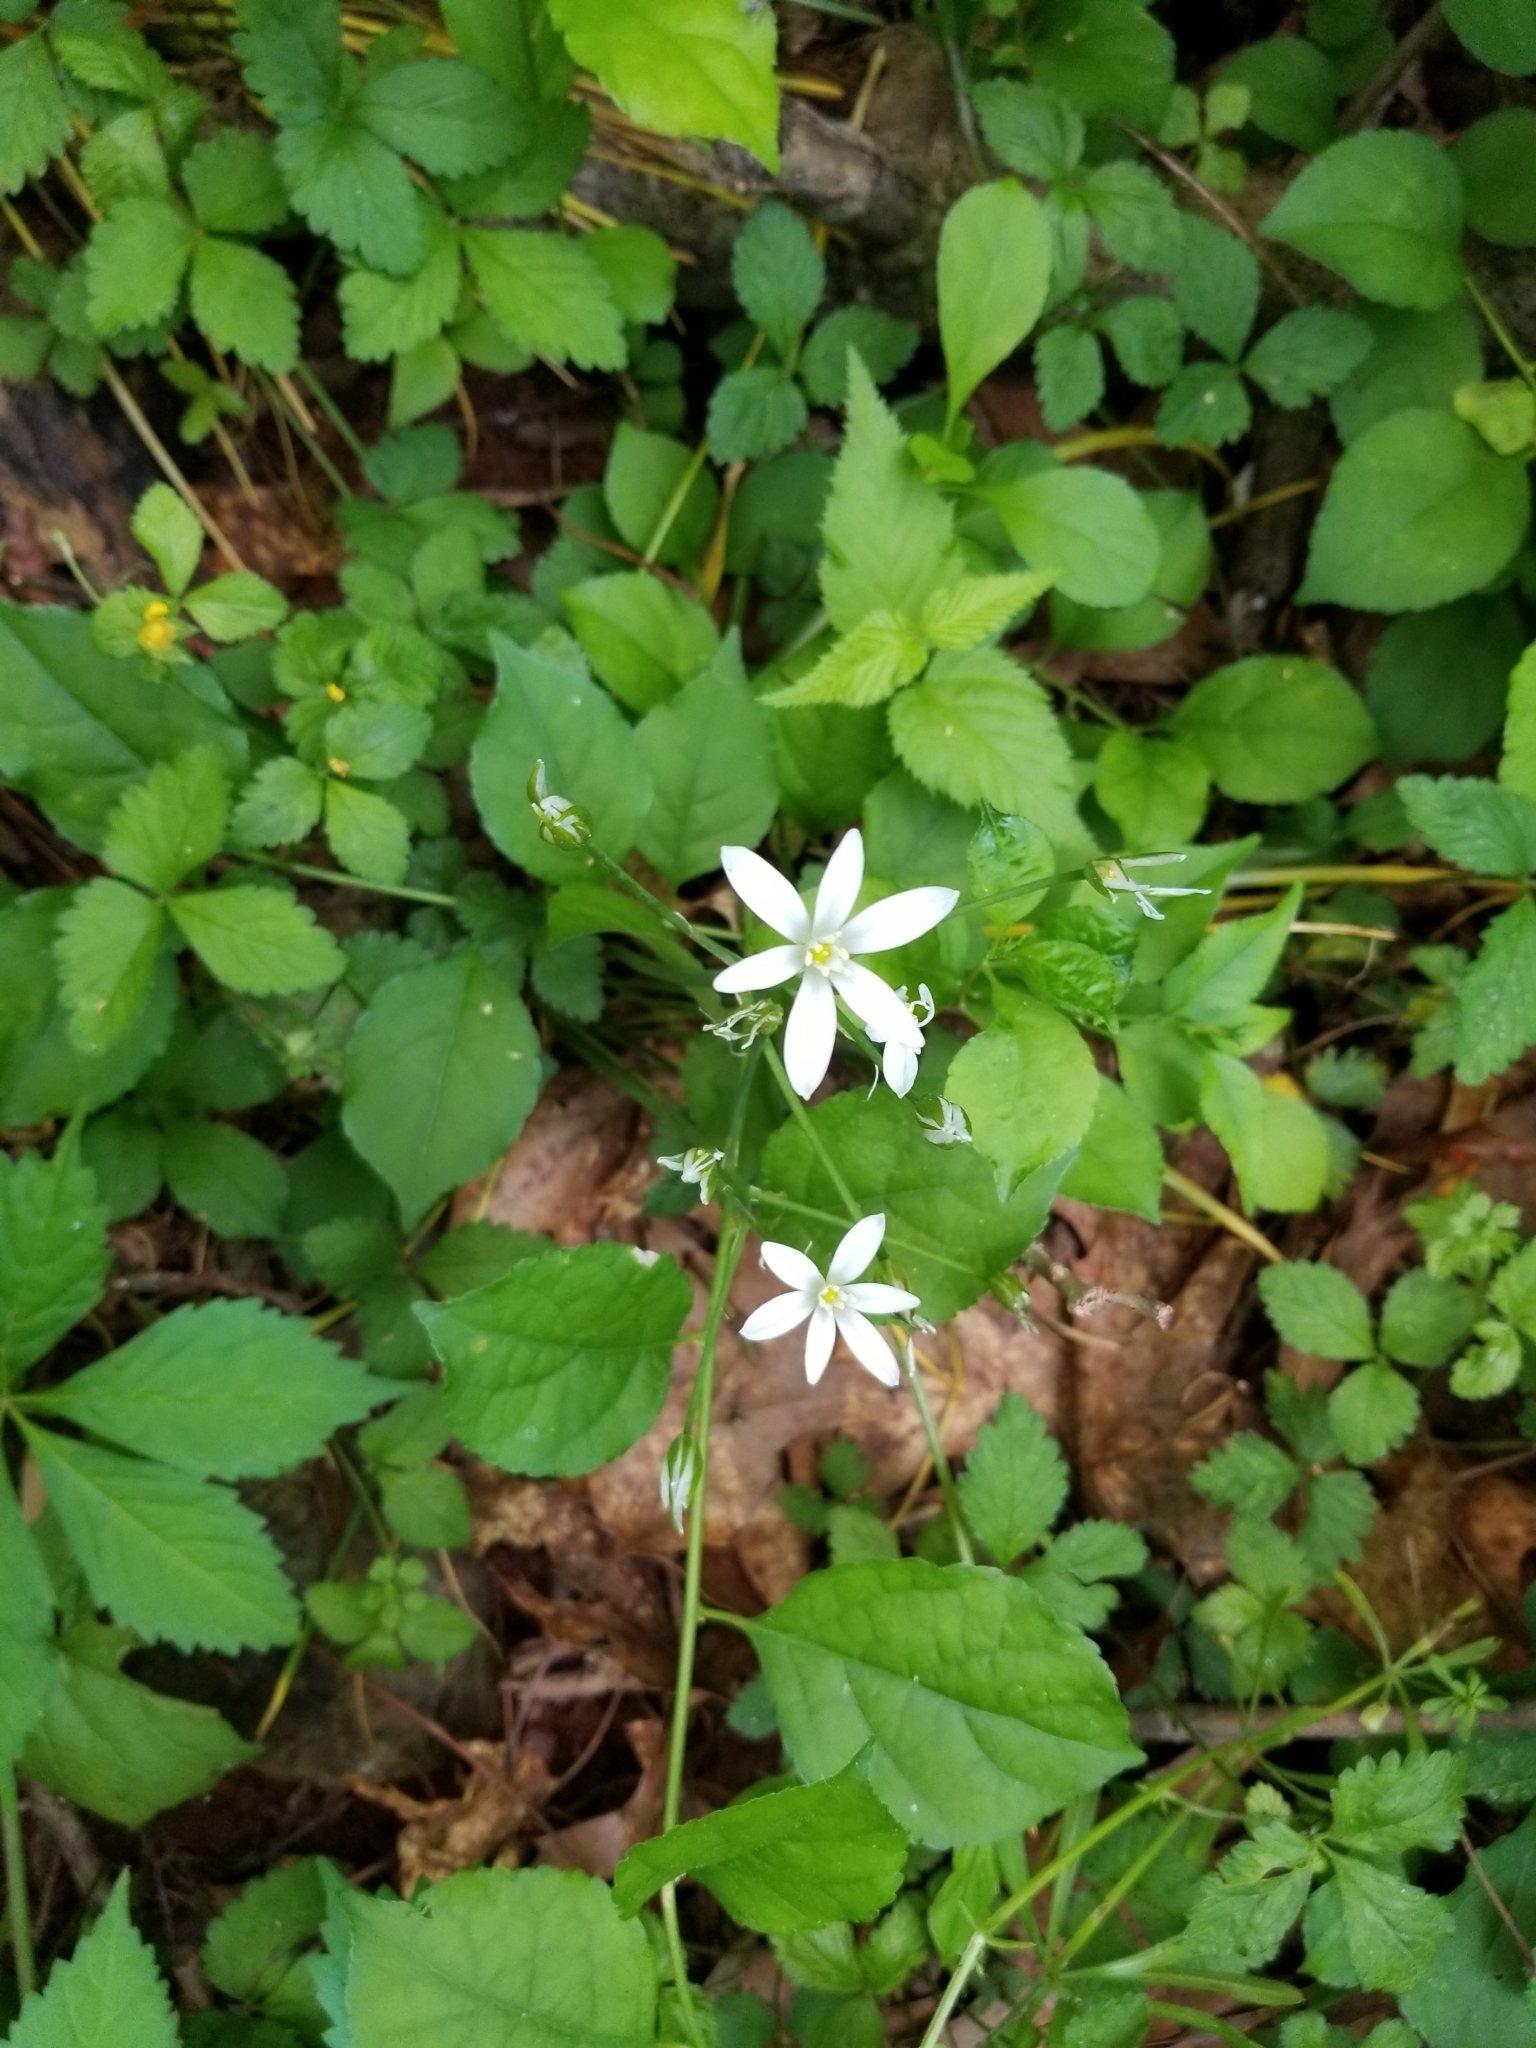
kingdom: Plantae
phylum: Tracheophyta
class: Liliopsida
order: Asparagales
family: Asparagaceae
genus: Ornithogalum
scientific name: Ornithogalum umbellatum
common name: Garden star-of-bethlehem
